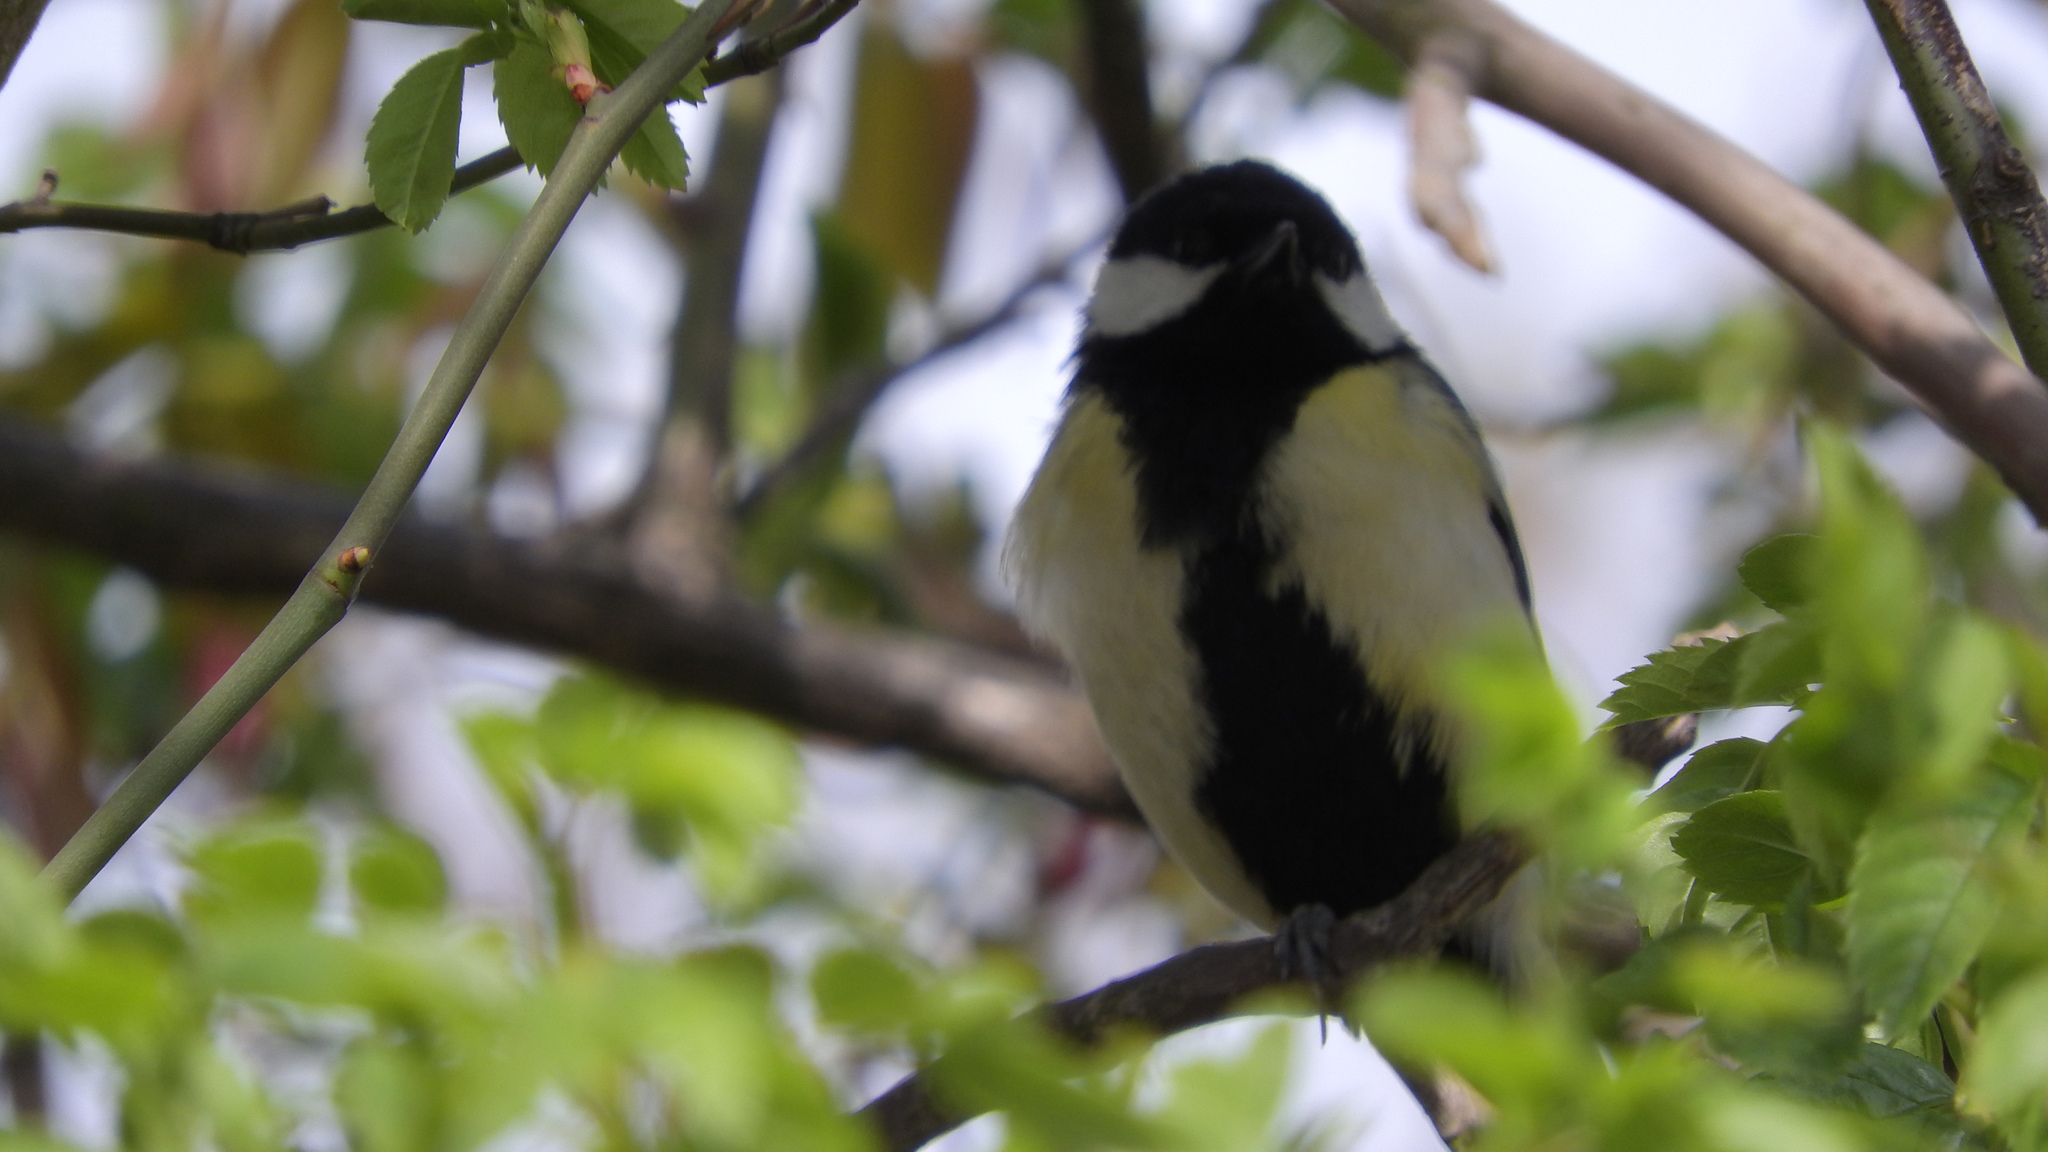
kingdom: Animalia
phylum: Chordata
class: Aves
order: Passeriformes
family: Paridae
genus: Parus
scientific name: Parus major
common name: Great tit
